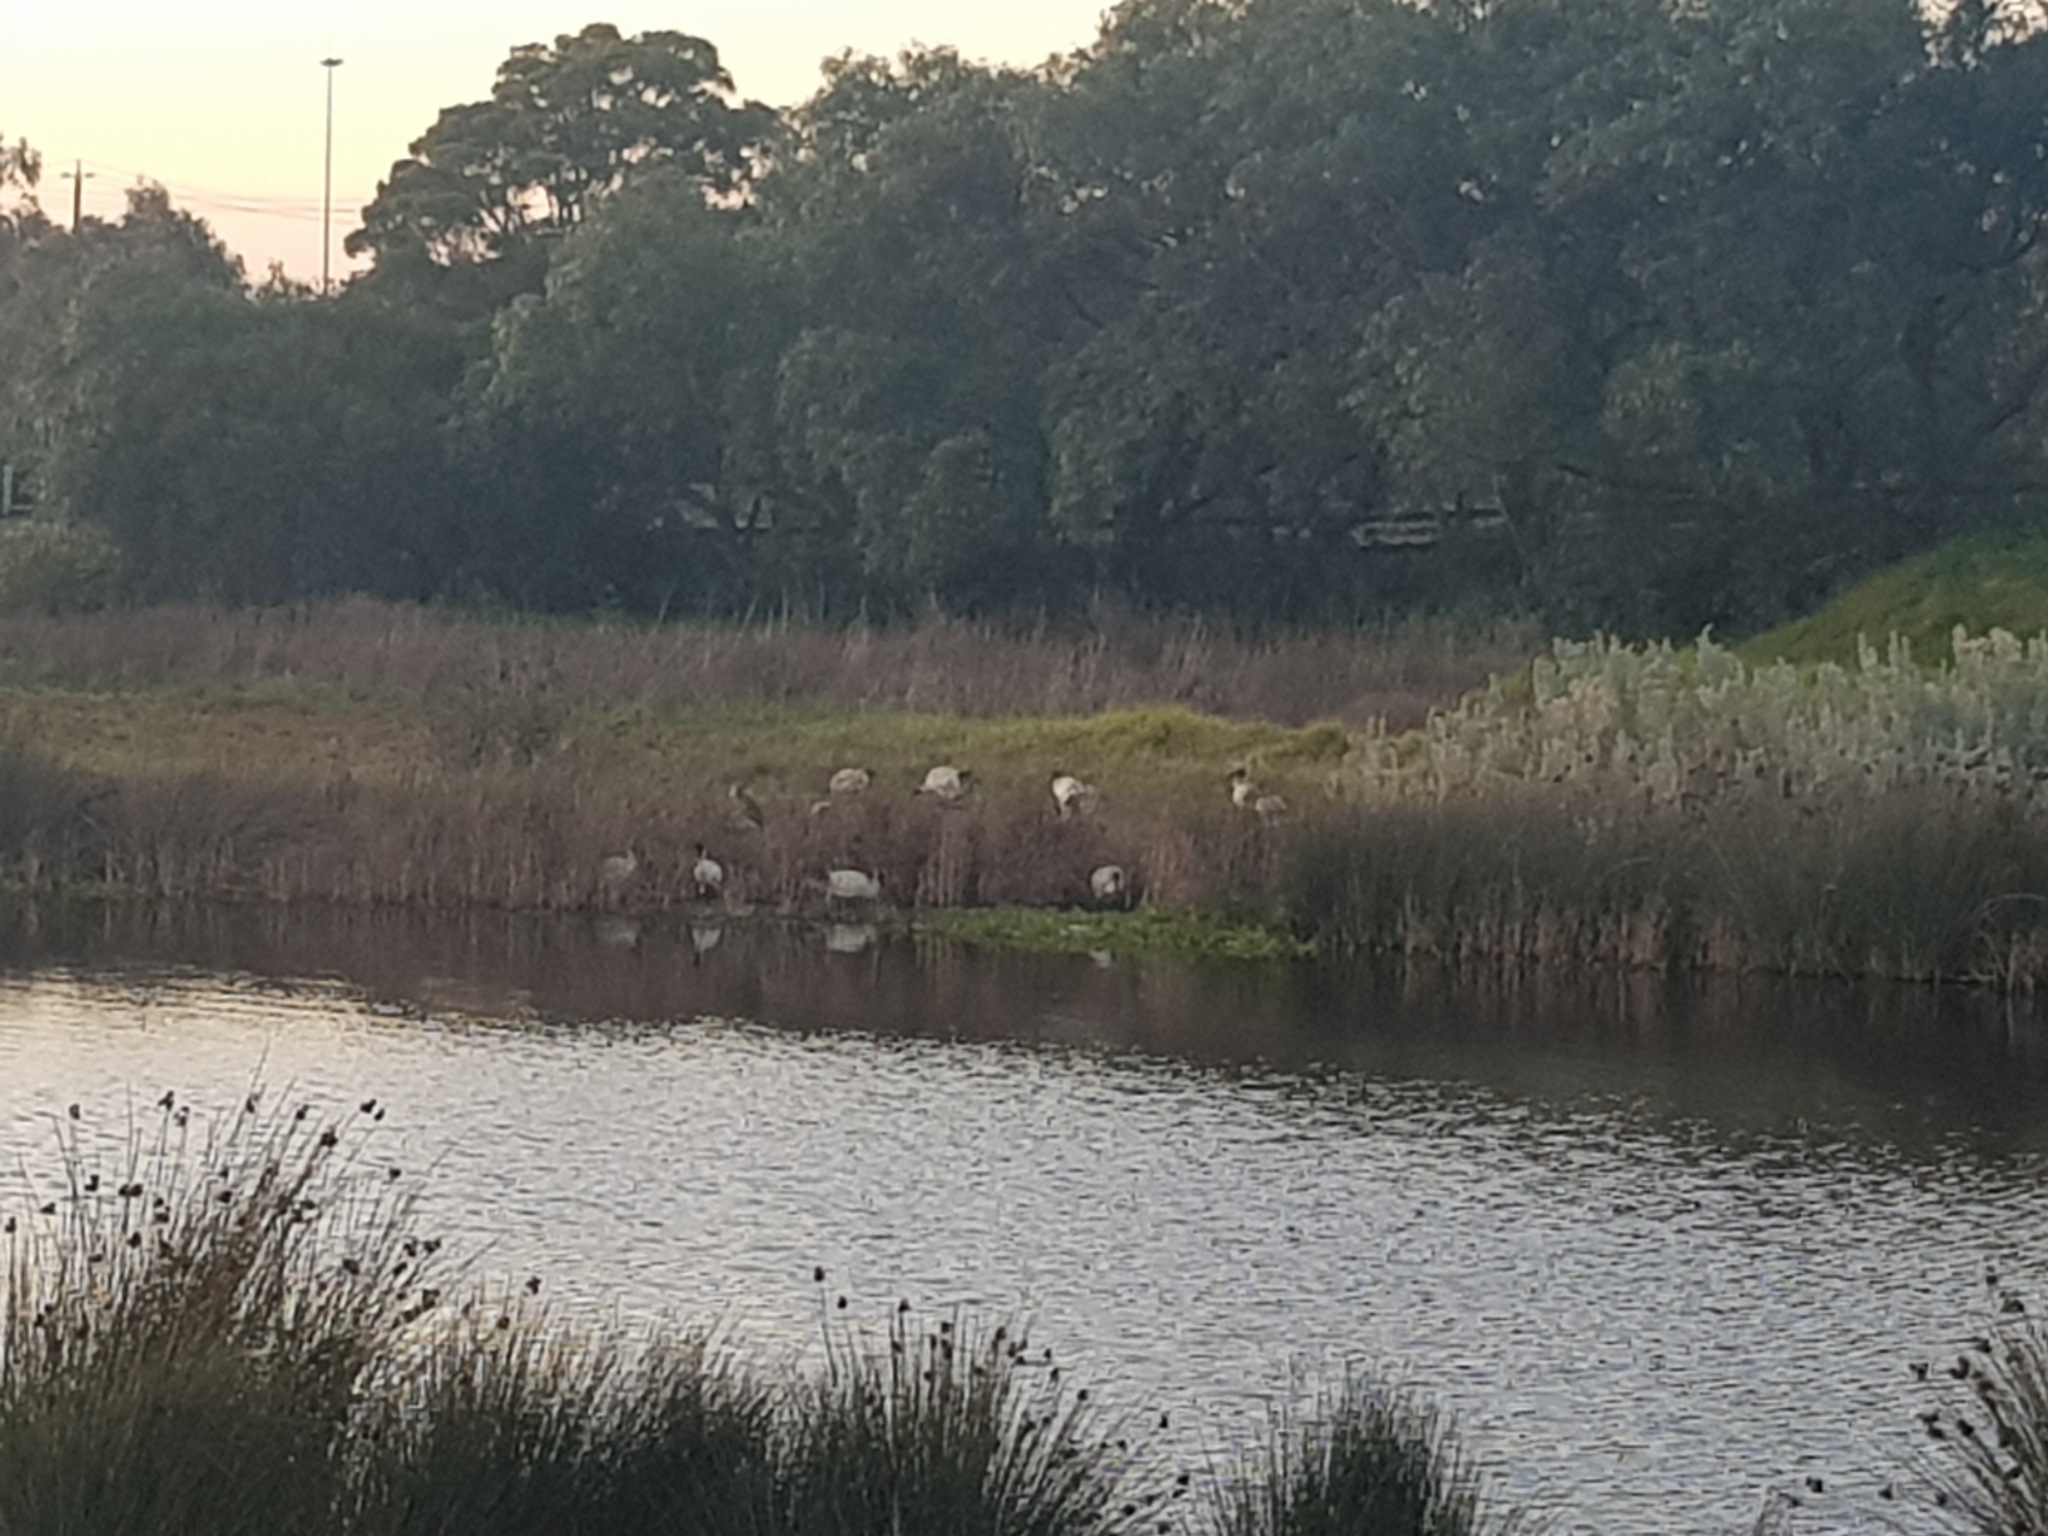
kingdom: Animalia
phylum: Chordata
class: Aves
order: Pelecaniformes
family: Threskiornithidae
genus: Threskiornis
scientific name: Threskiornis molucca
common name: Australian white ibis
